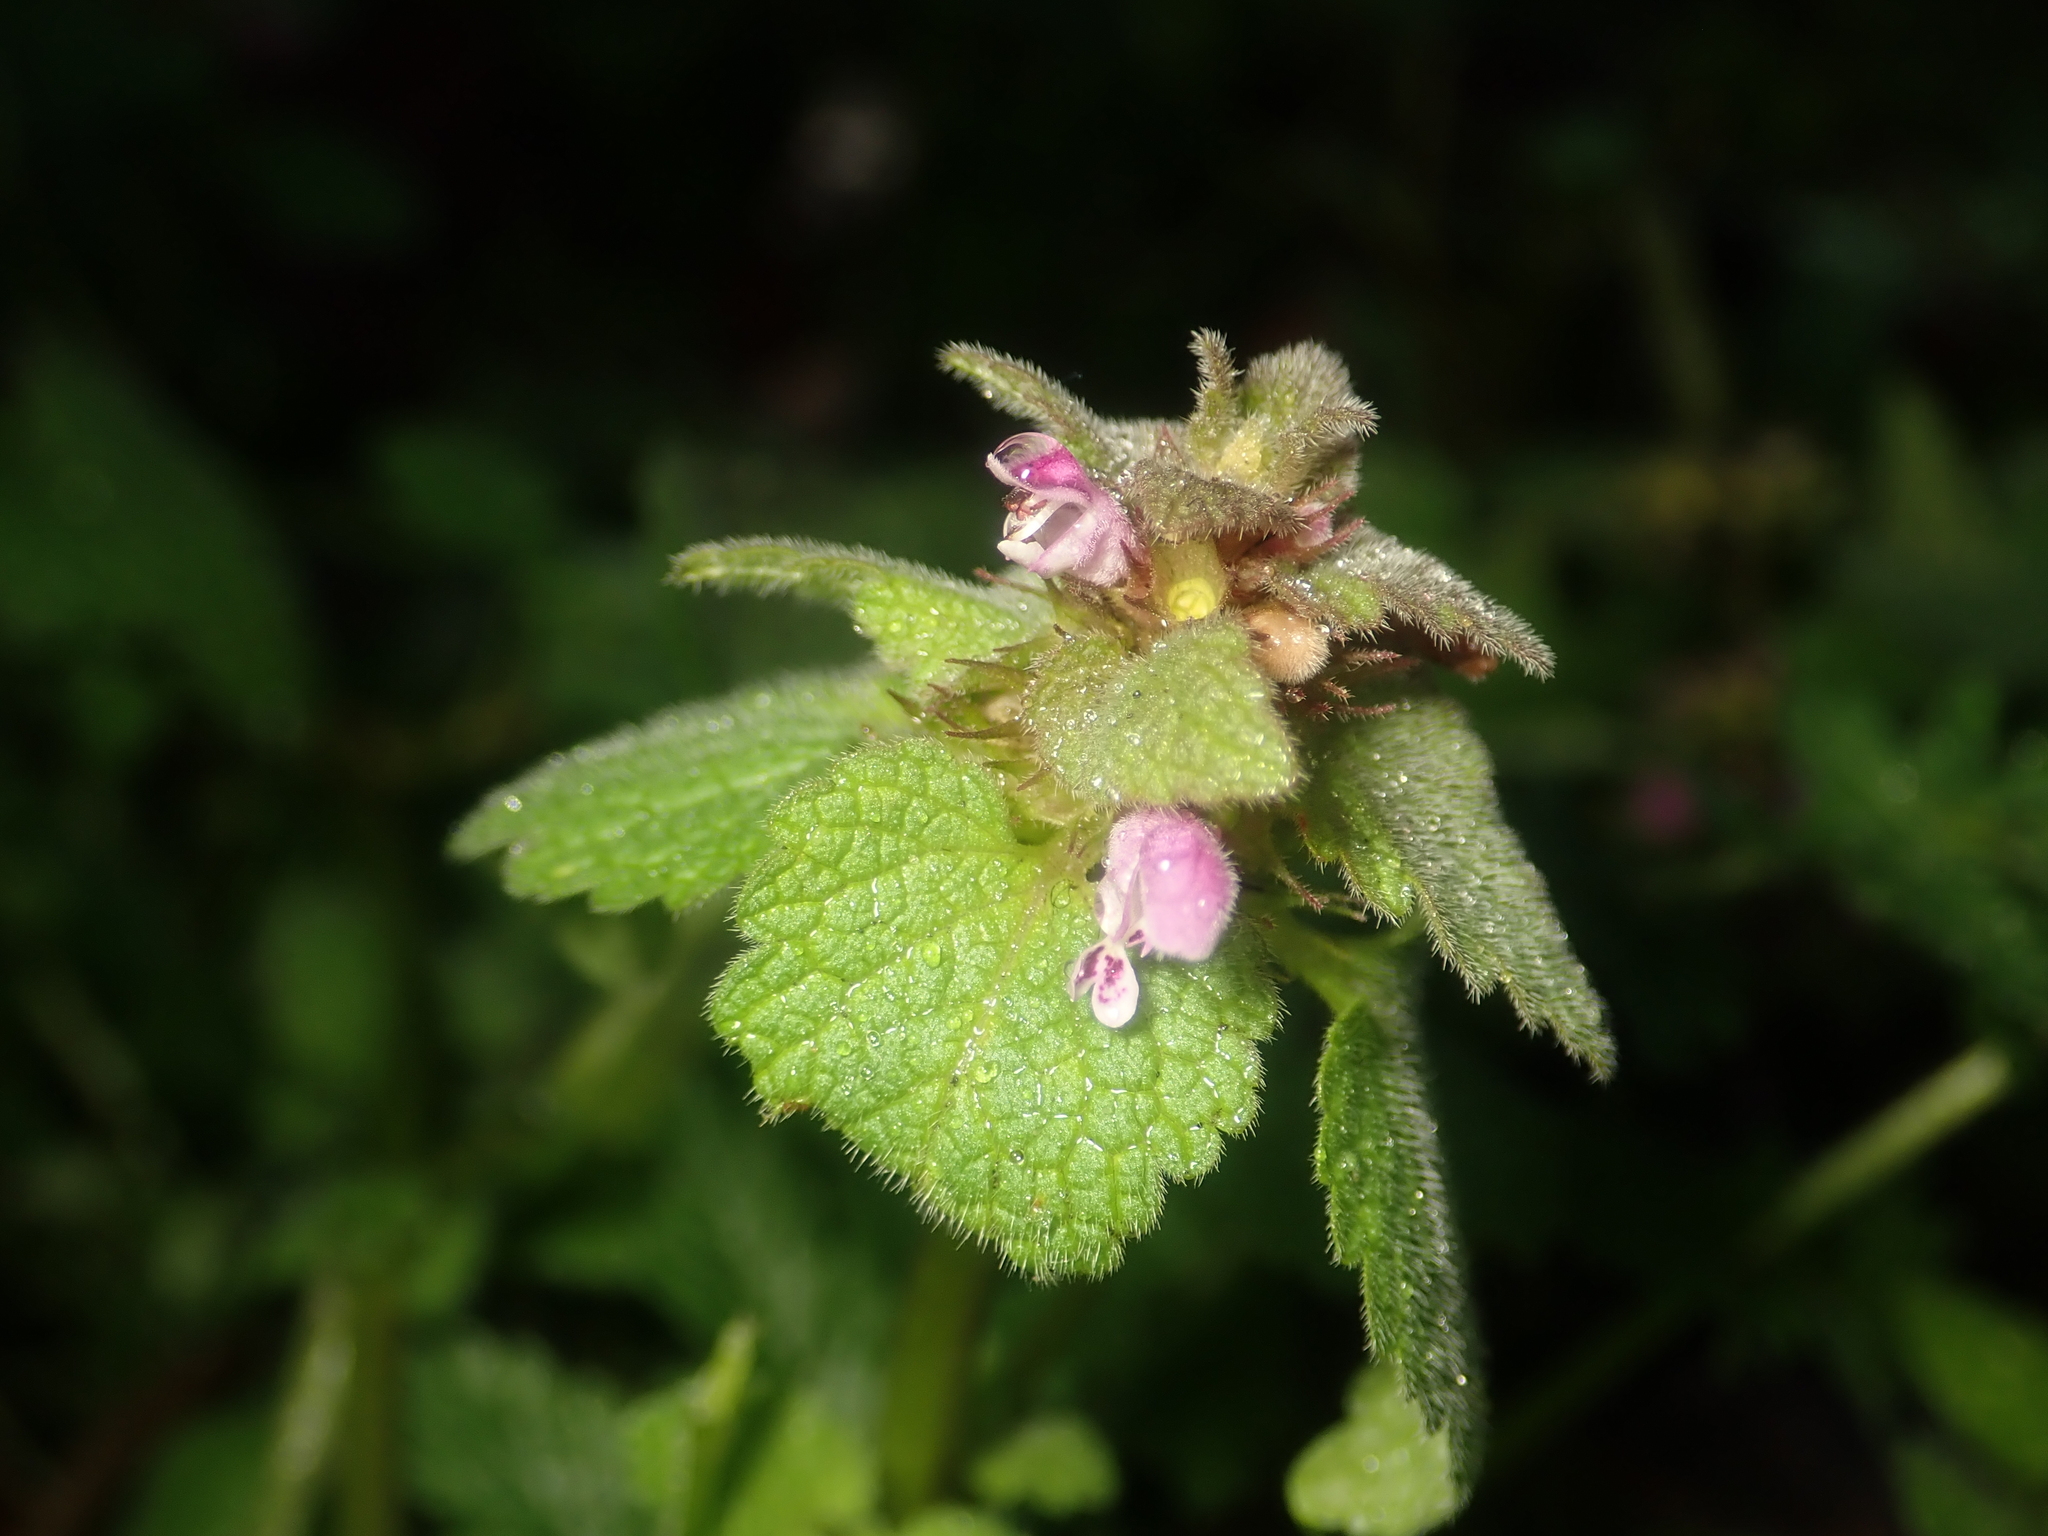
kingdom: Plantae
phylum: Tracheophyta
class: Magnoliopsida
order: Lamiales
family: Lamiaceae
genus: Lamium
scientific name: Lamium purpureum
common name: Red dead-nettle
